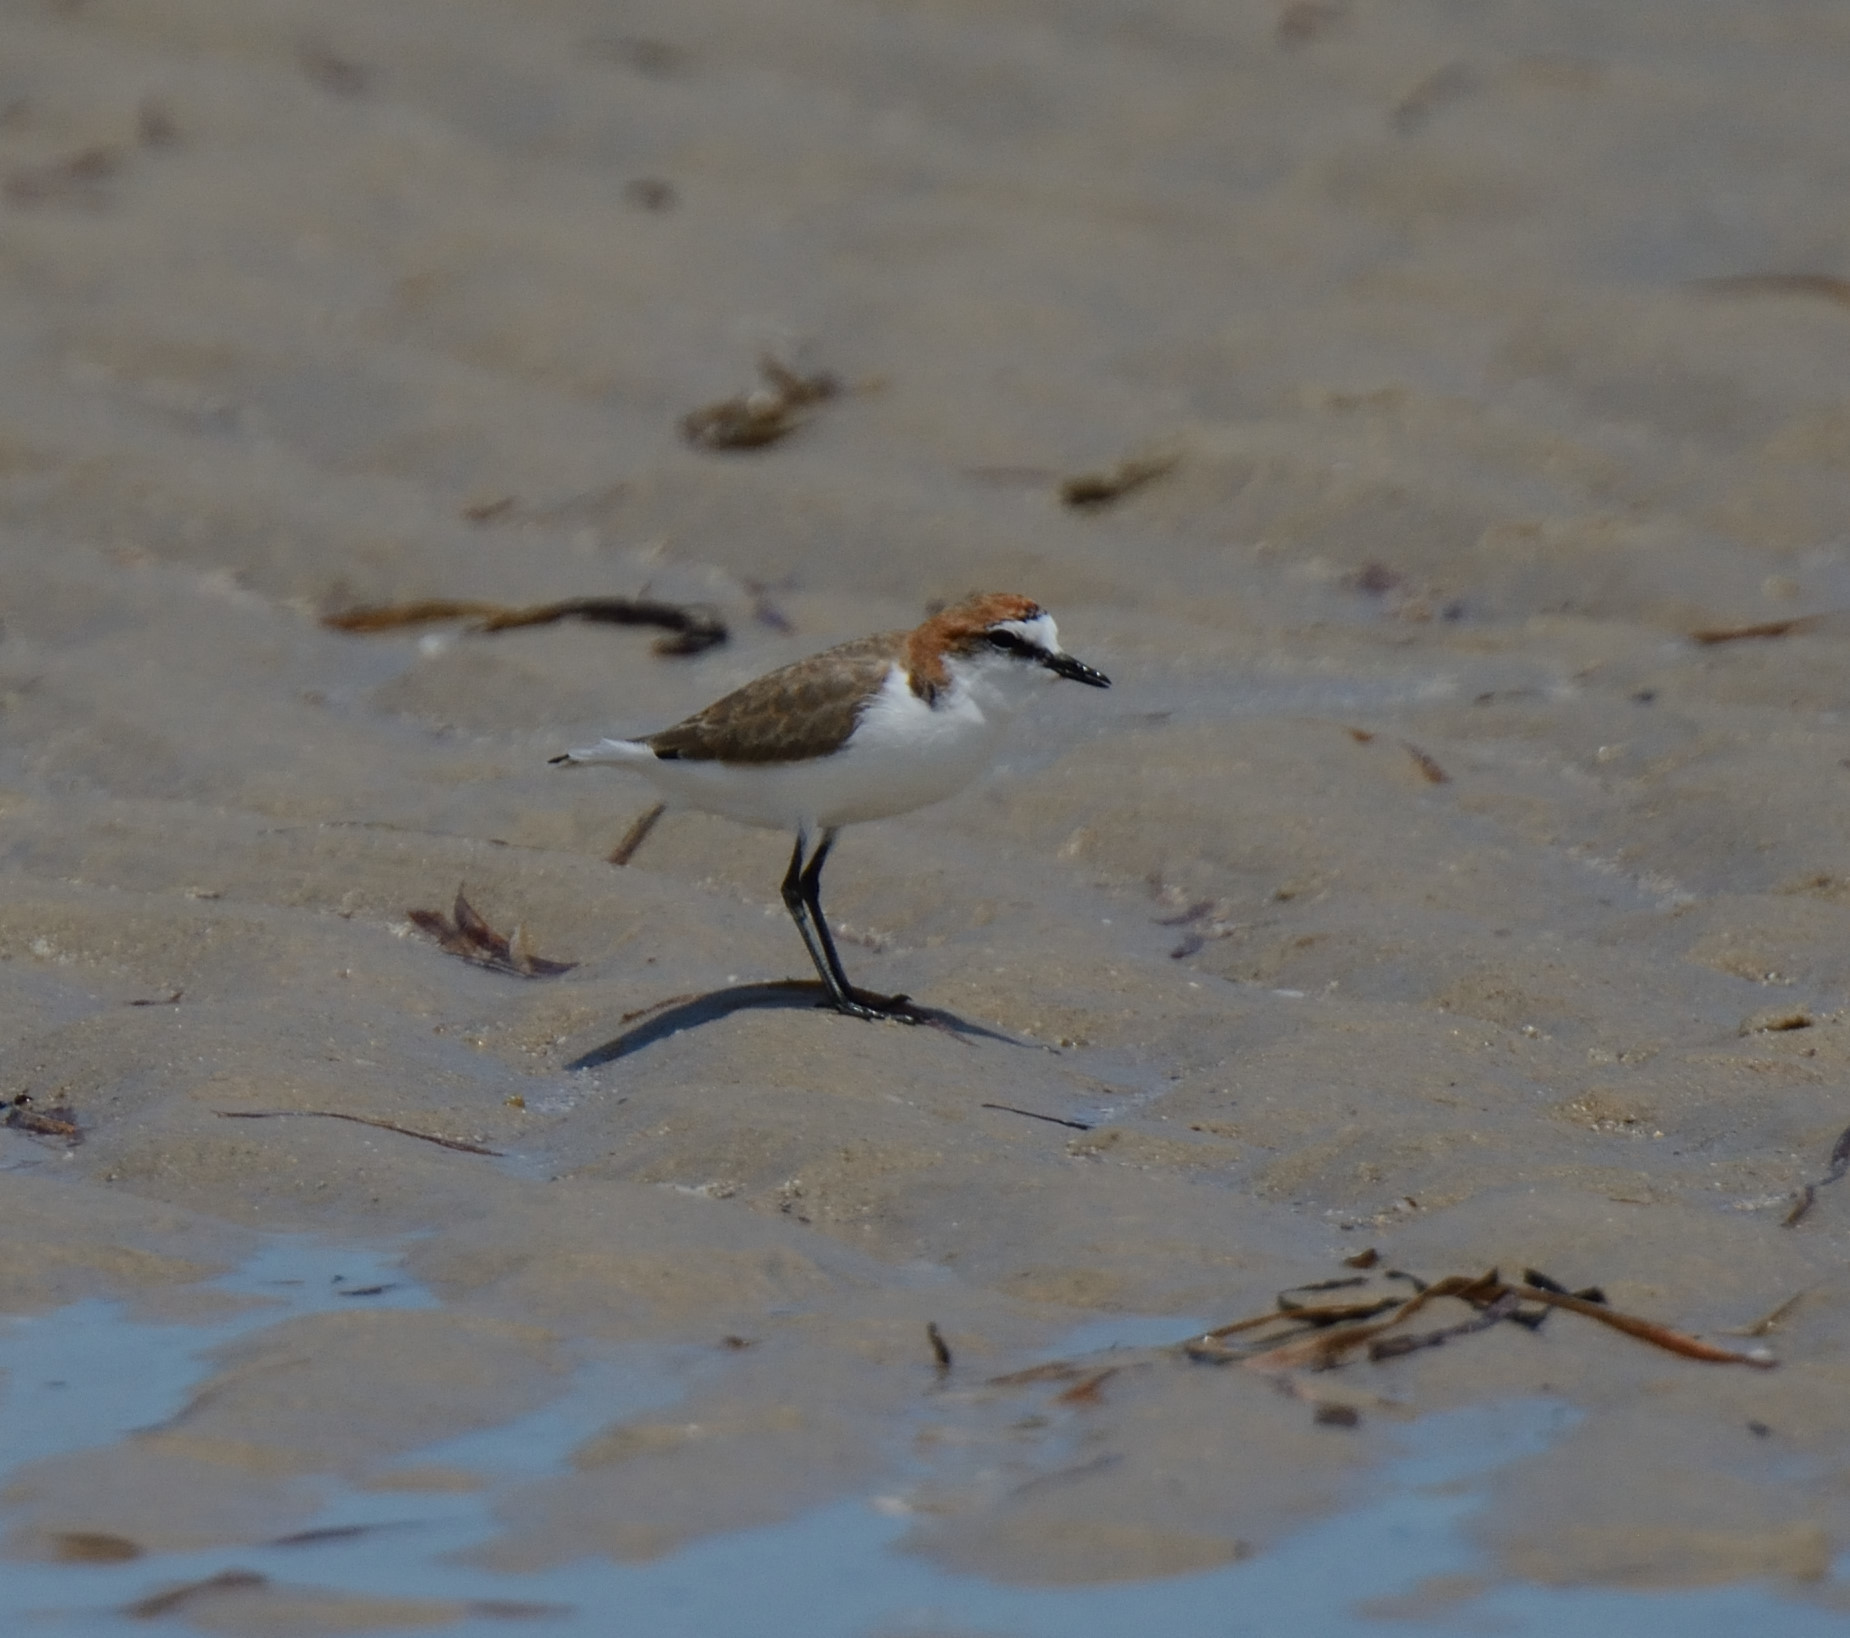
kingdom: Animalia
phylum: Chordata
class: Aves
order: Charadriiformes
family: Charadriidae
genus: Anarhynchus
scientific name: Anarhynchus
